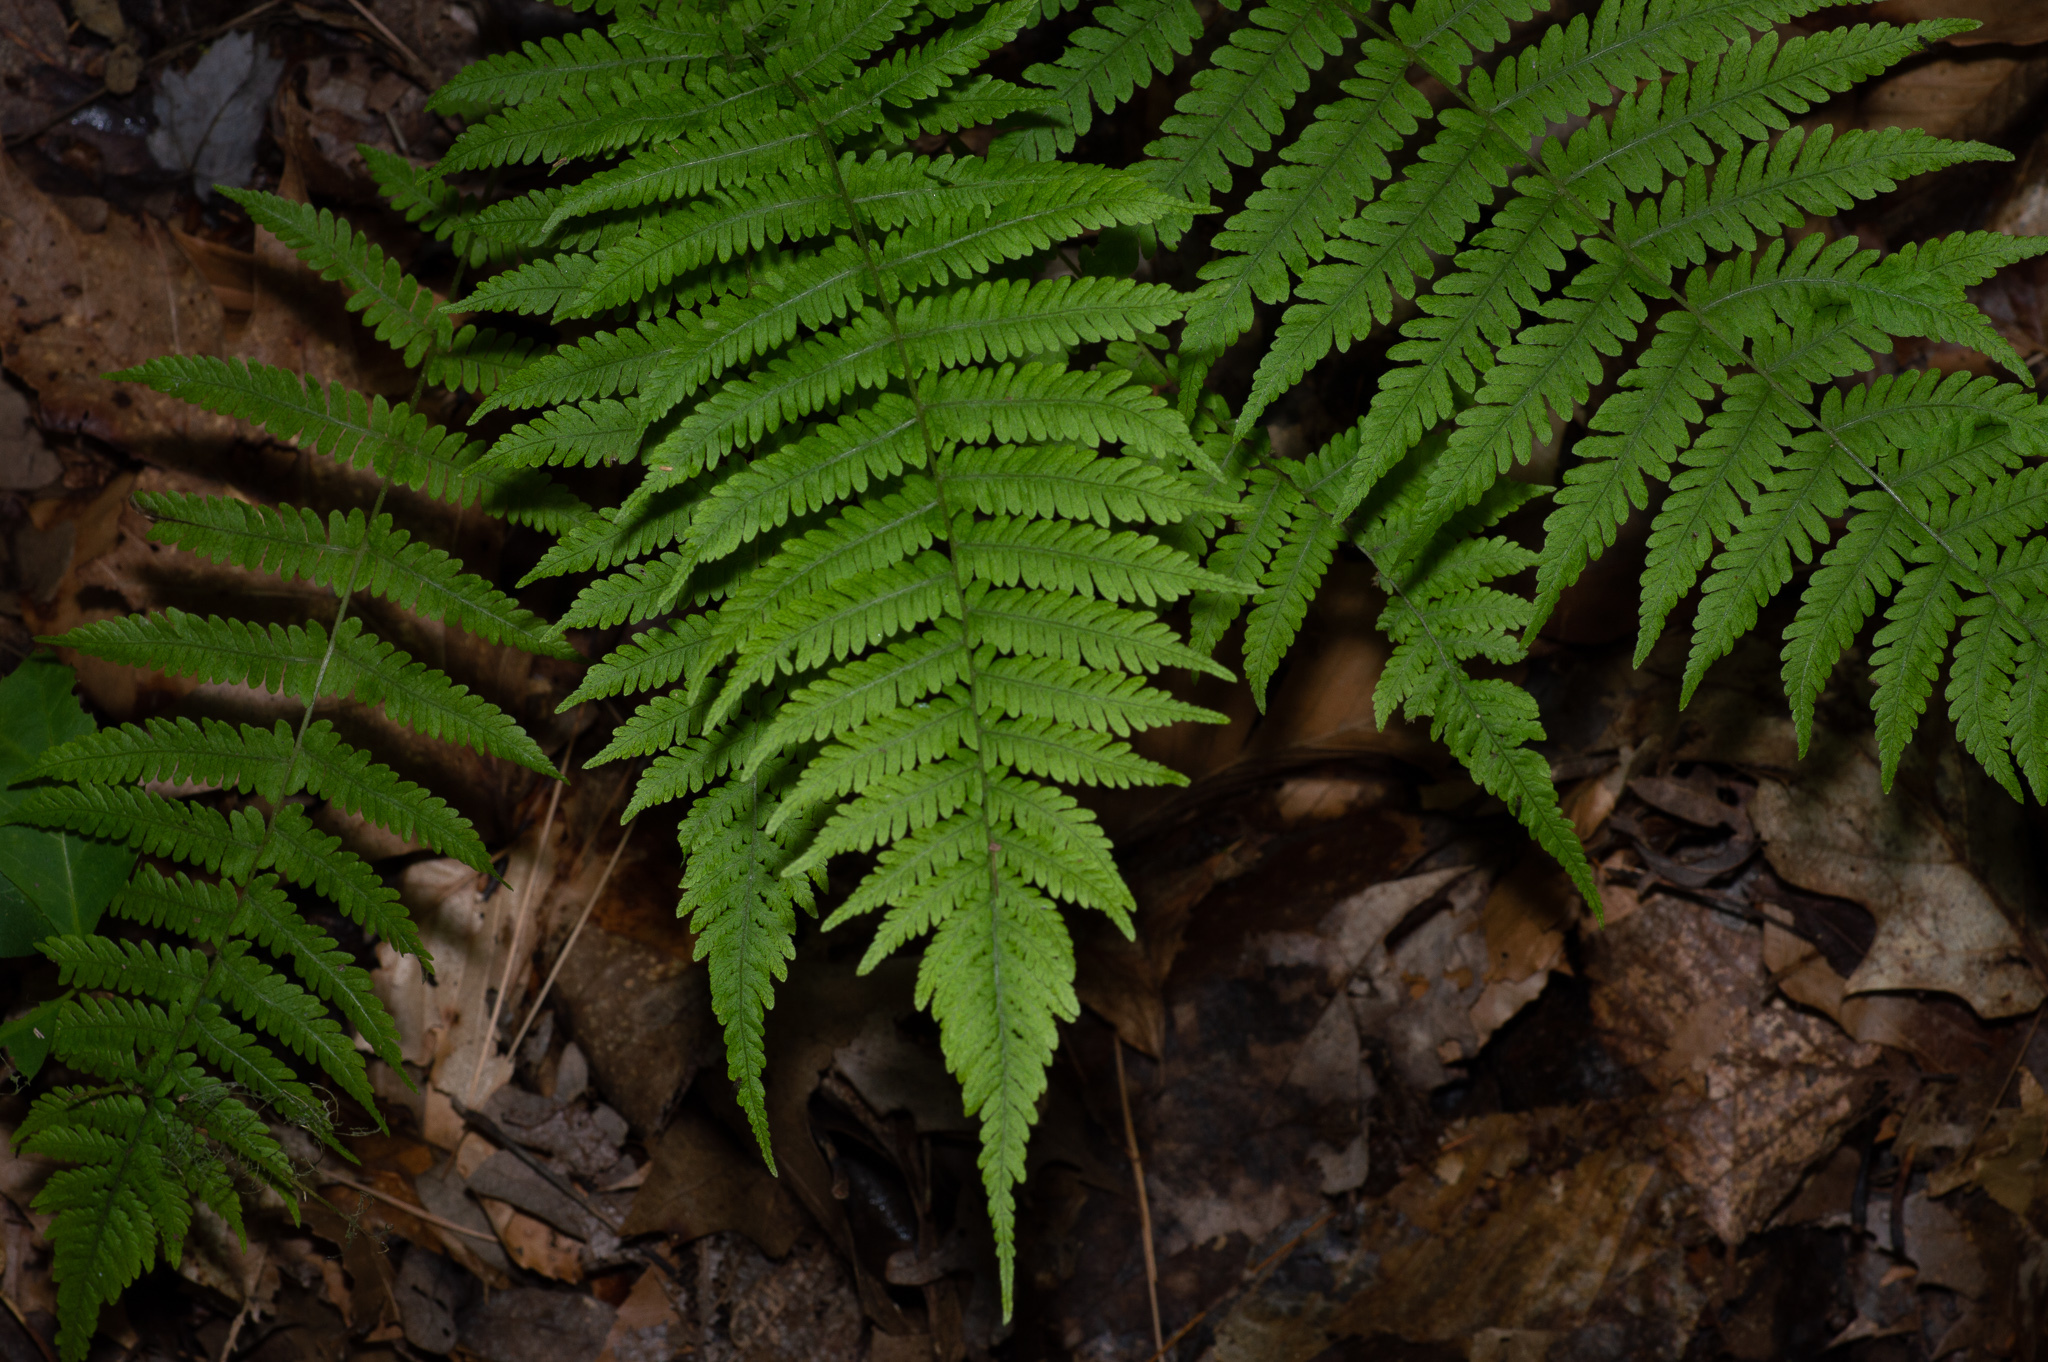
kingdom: Plantae
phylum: Tracheophyta
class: Polypodiopsida
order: Polypodiales
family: Thelypteridaceae
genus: Amauropelta
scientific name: Amauropelta noveboracensis
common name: New york fern
